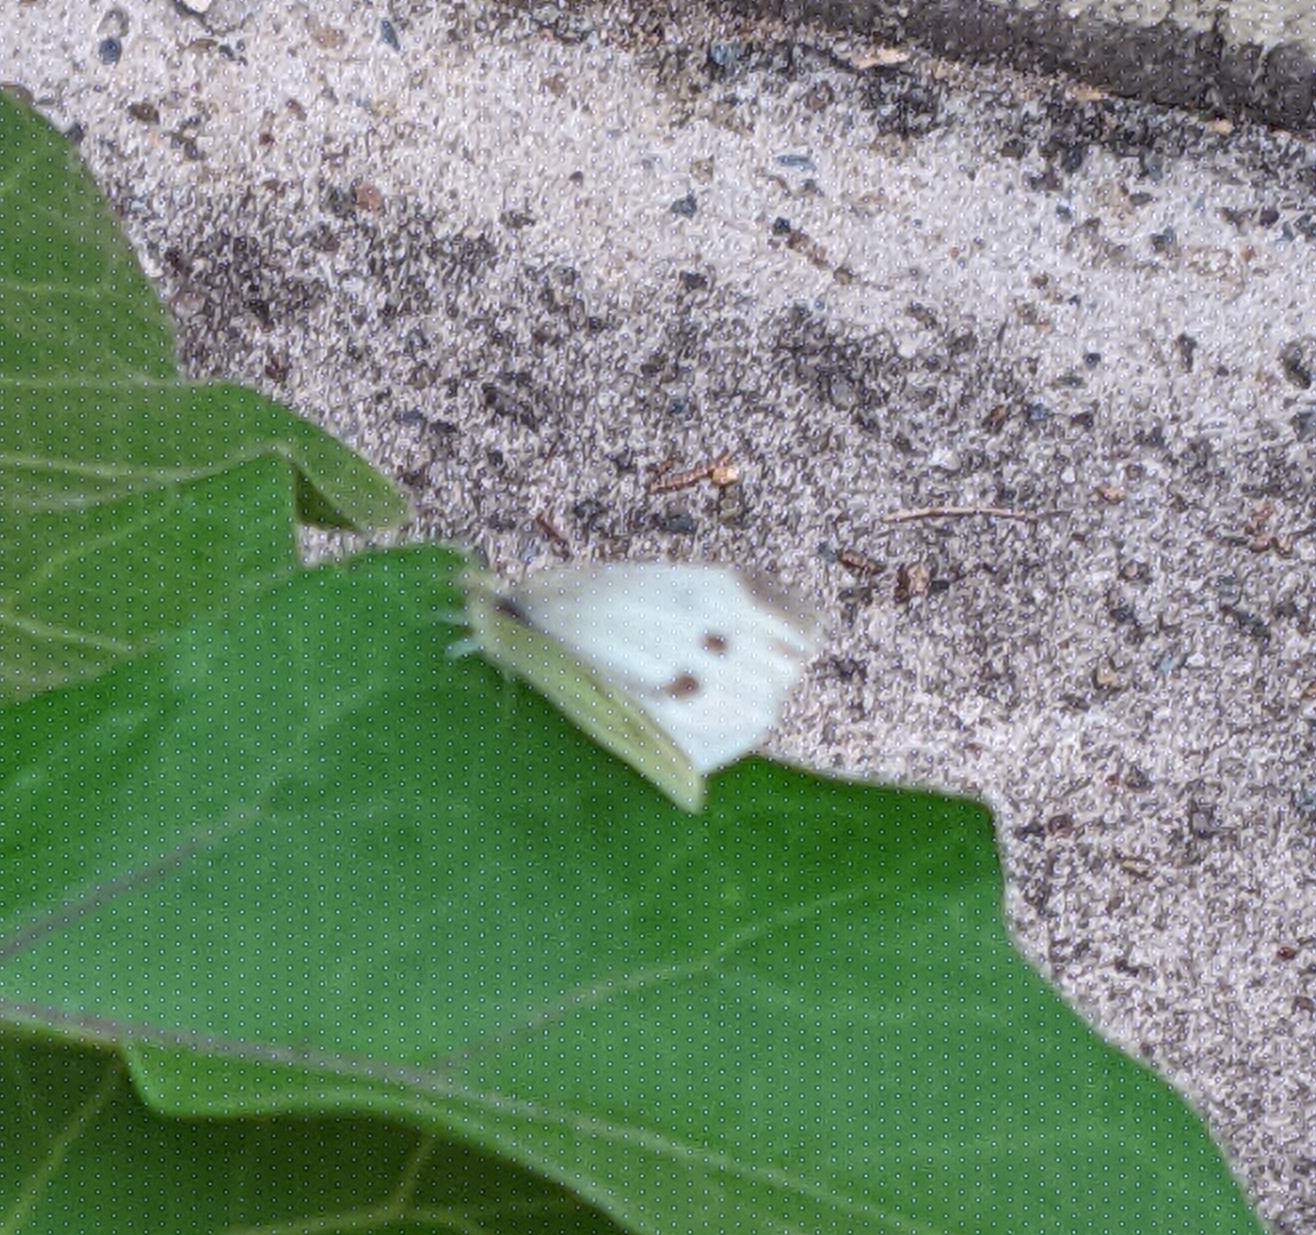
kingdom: Animalia
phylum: Arthropoda
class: Insecta
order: Lepidoptera
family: Pieridae
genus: Pieris
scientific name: Pieris rapae
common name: Small white
